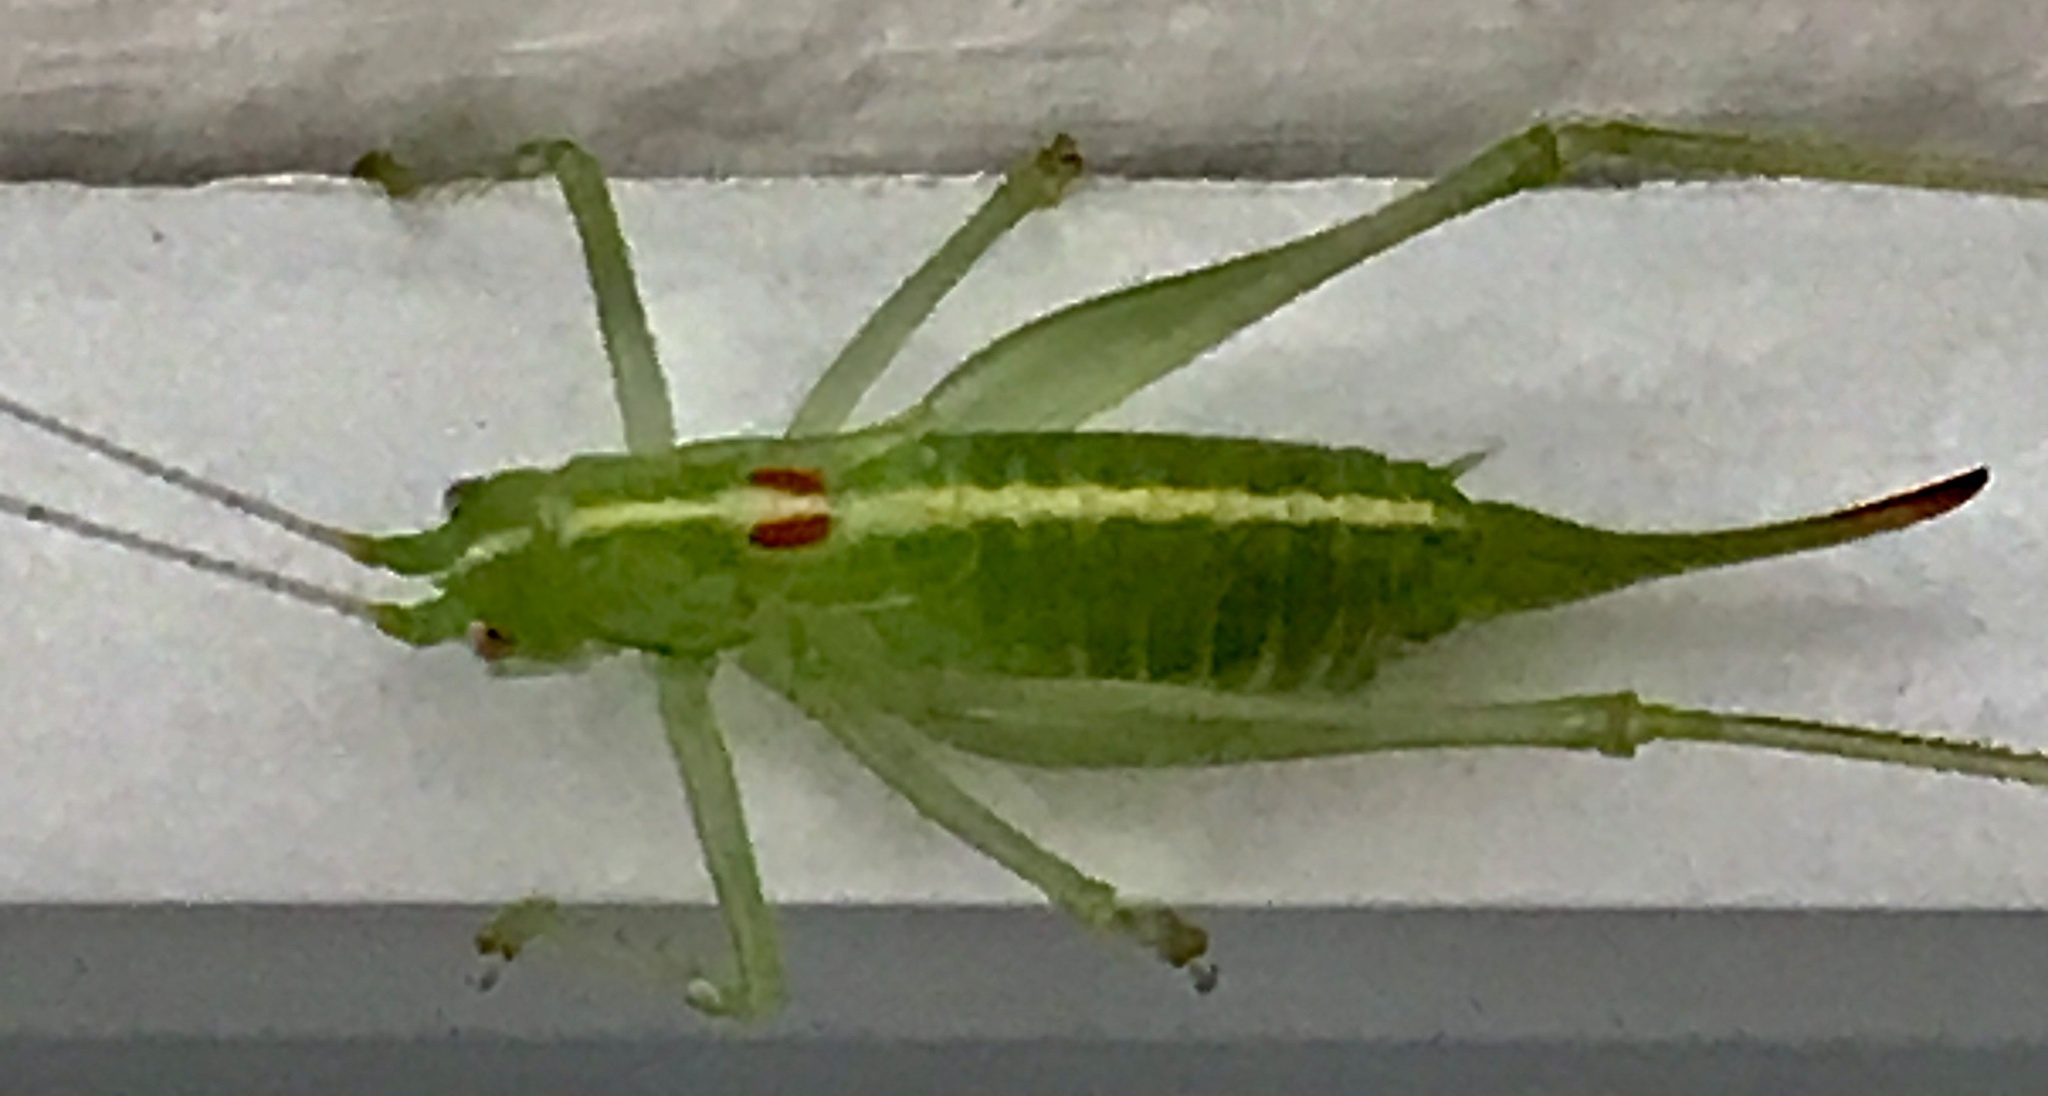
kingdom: Animalia
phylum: Arthropoda
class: Insecta
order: Orthoptera
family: Tettigoniidae
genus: Meconema
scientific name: Meconema meridionale
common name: Southern oak bush-cricket
